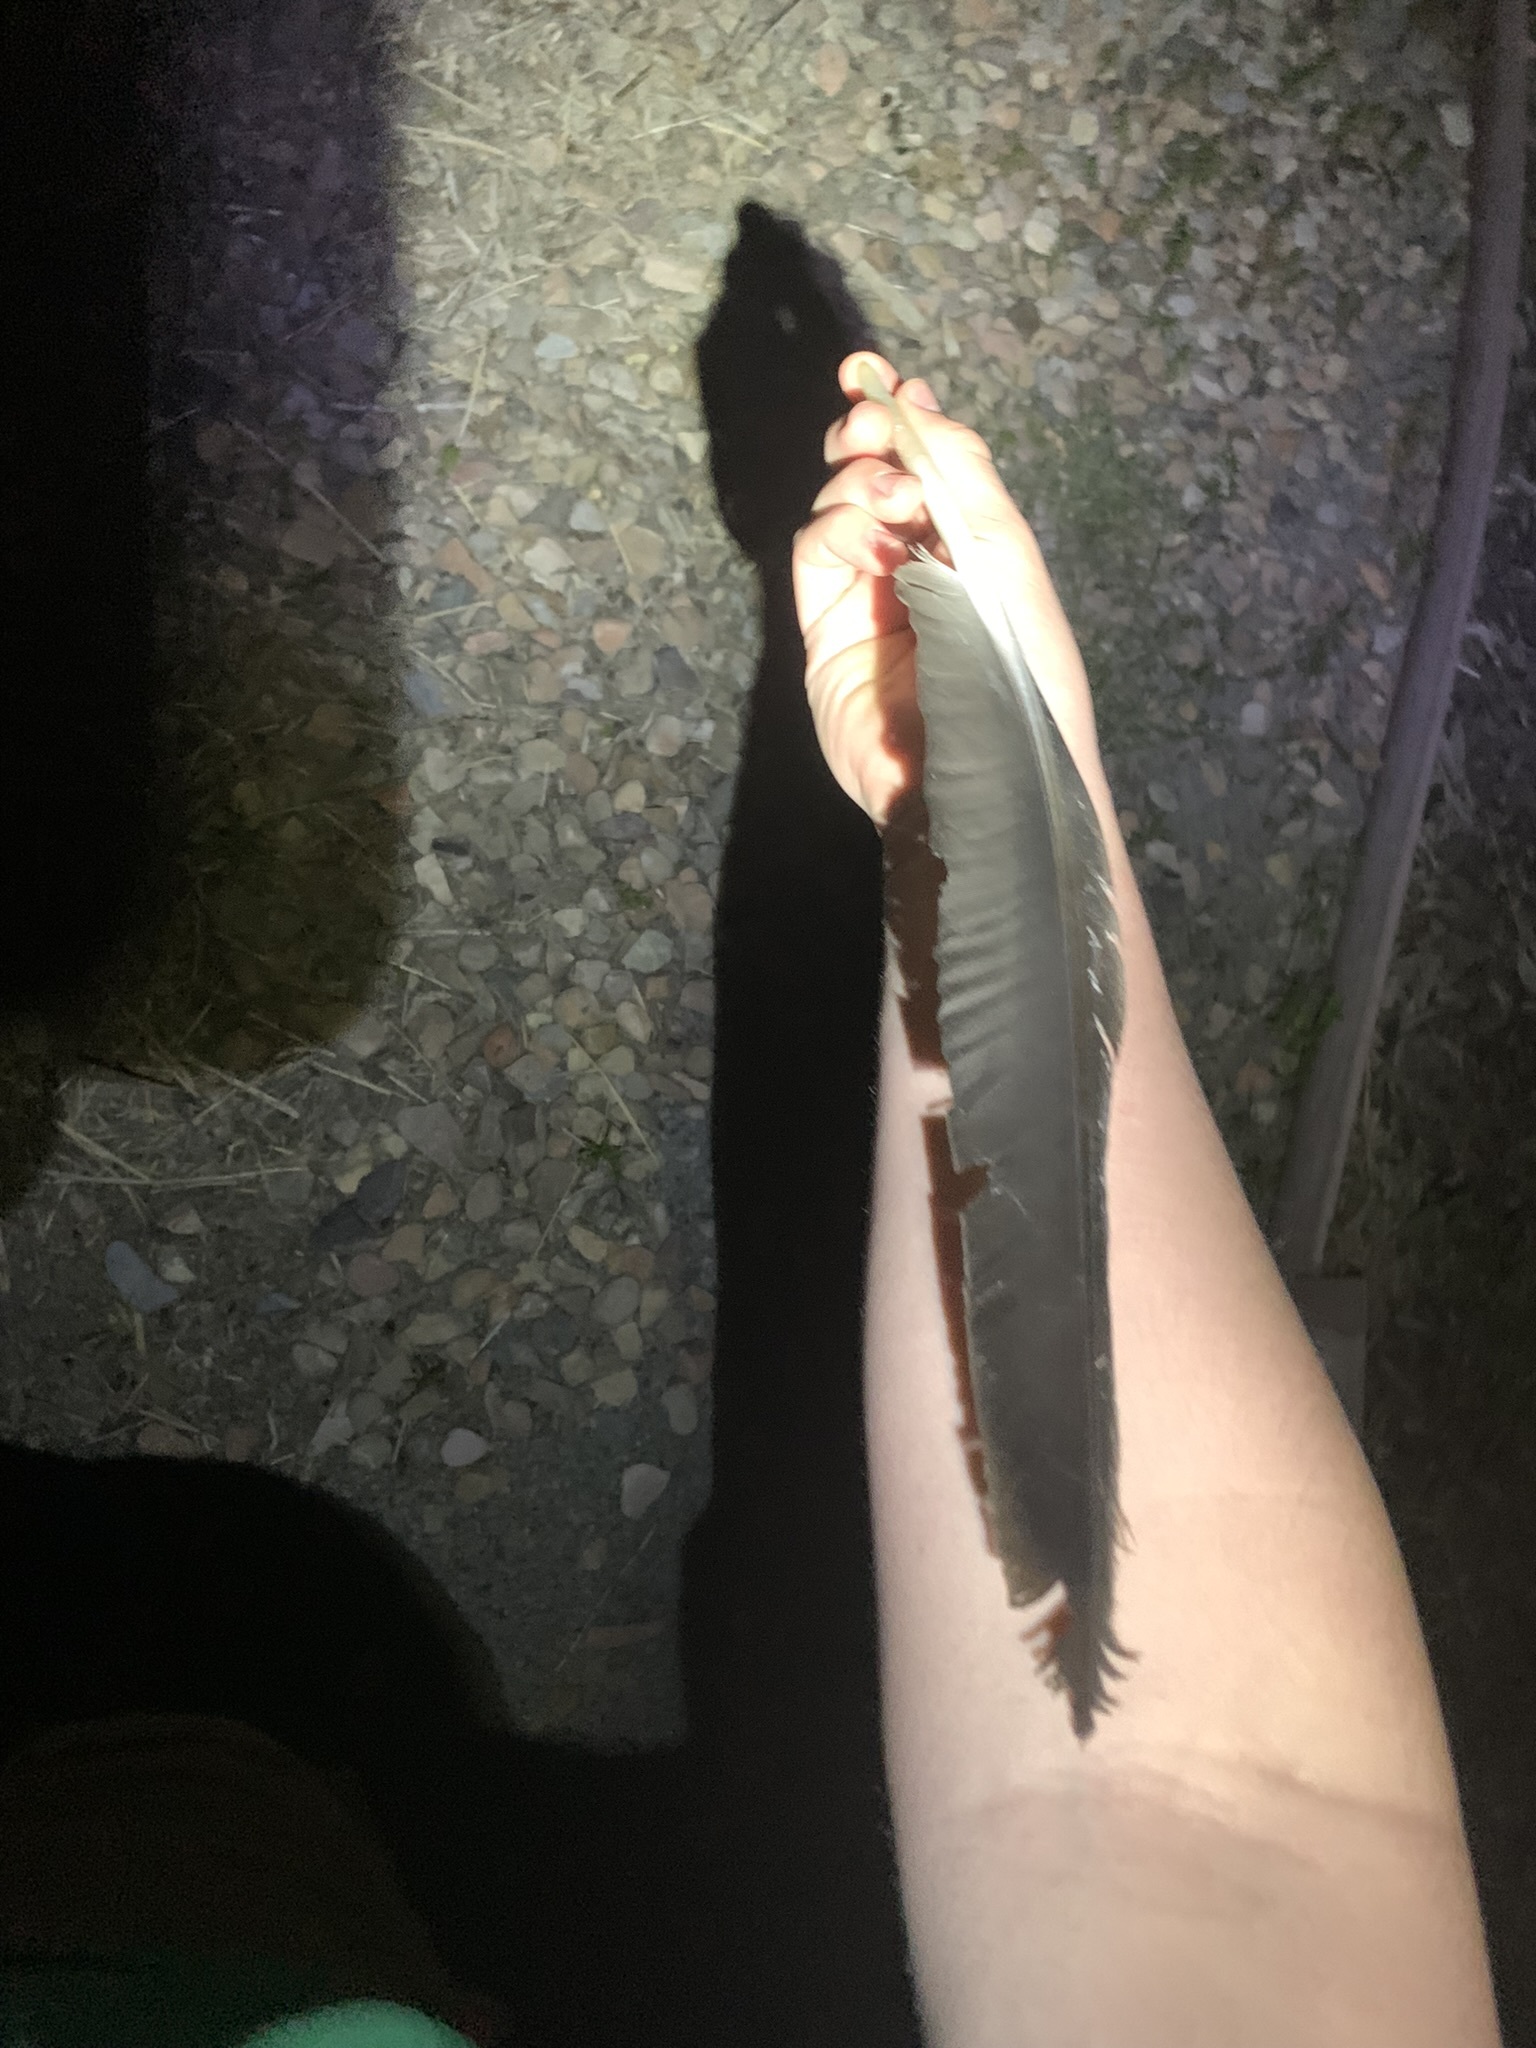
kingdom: Animalia
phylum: Chordata
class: Aves
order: Anseriformes
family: Anatidae
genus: Branta
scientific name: Branta canadensis
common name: Canada goose
